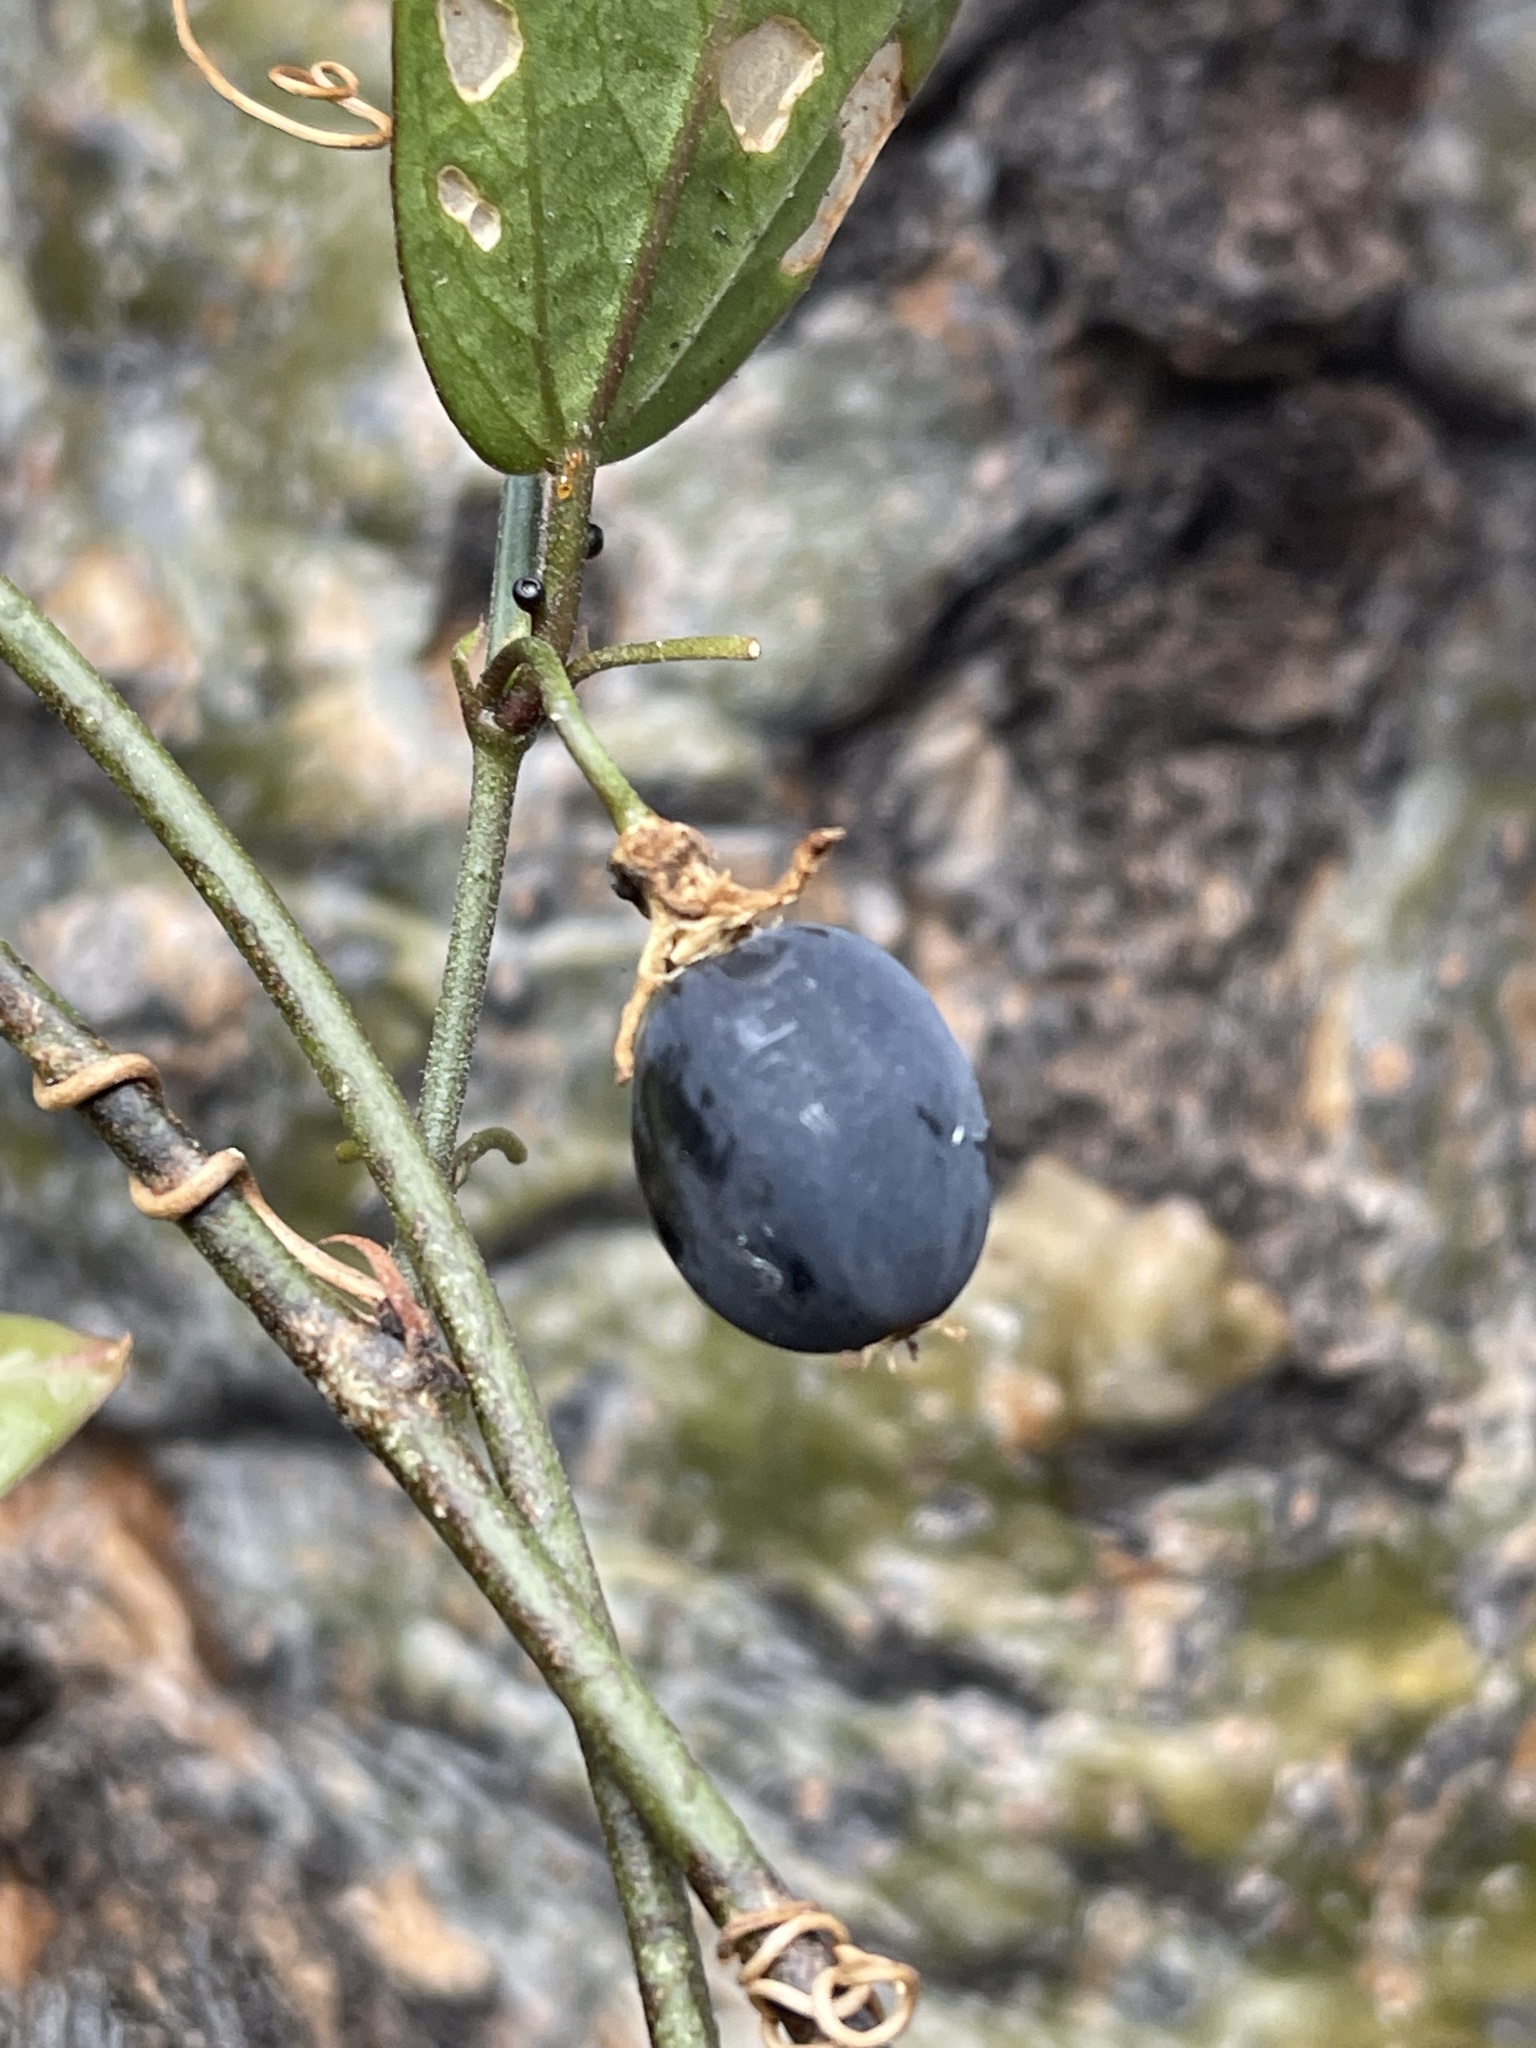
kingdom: Plantae
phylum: Tracheophyta
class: Magnoliopsida
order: Malpighiales
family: Passifloraceae
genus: Passiflora
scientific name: Passiflora pallida
